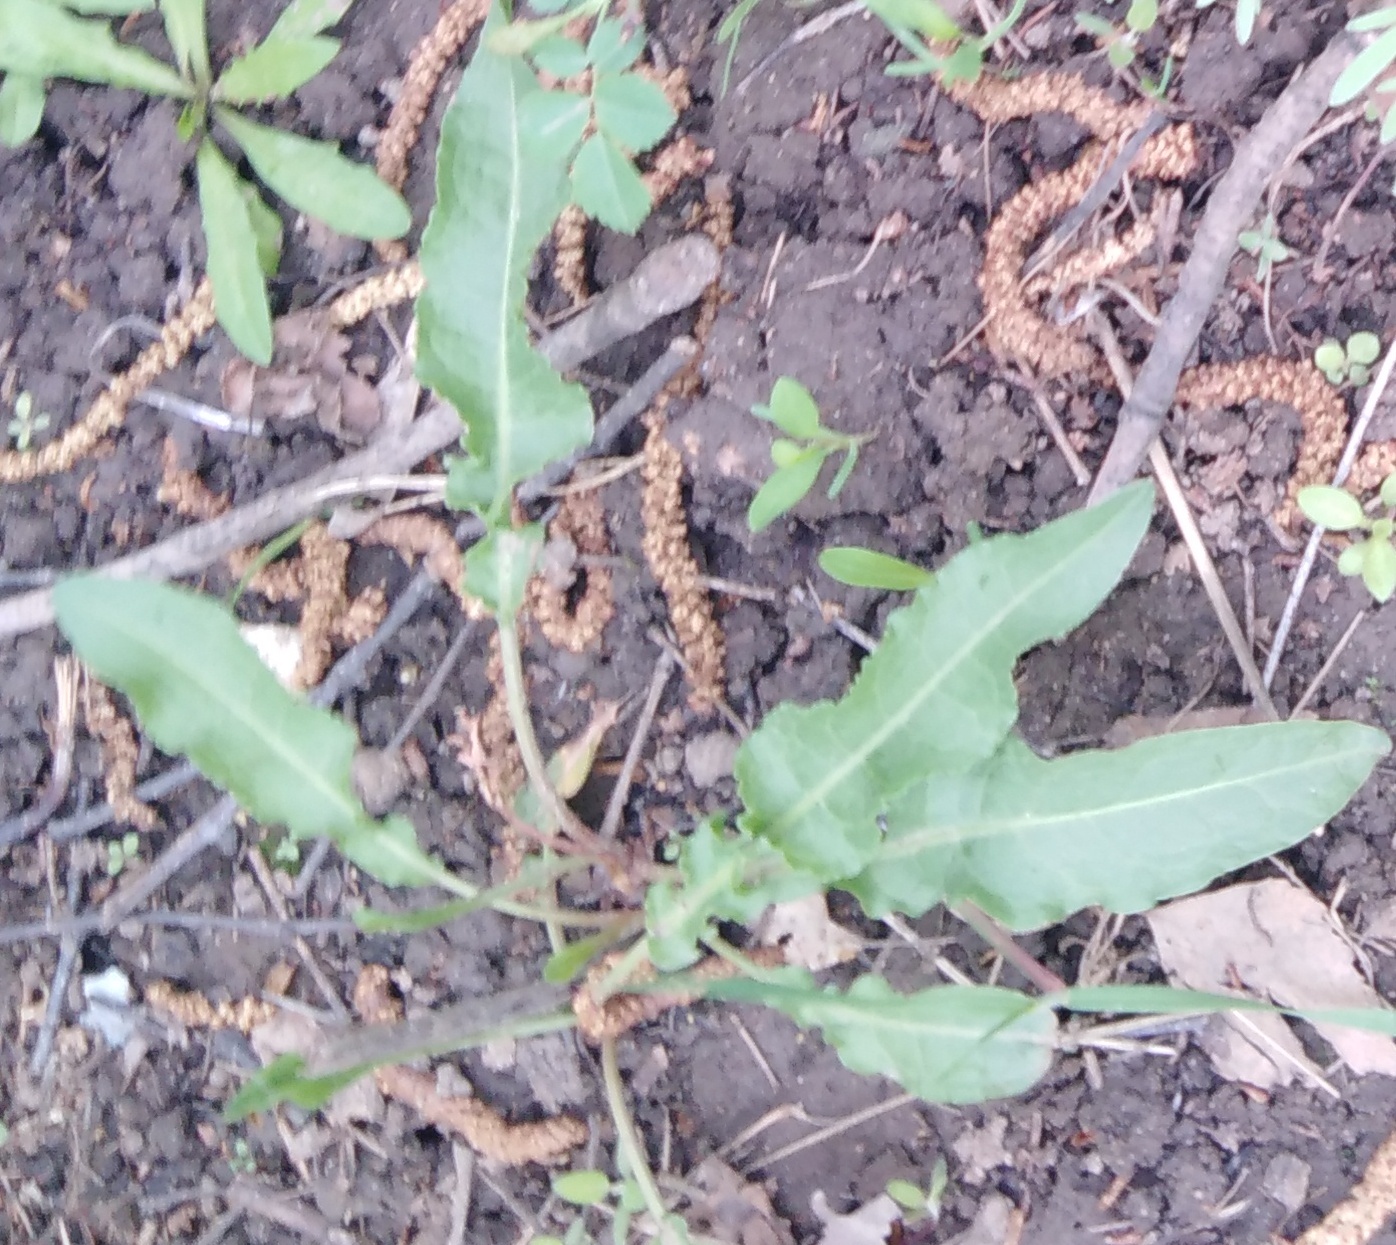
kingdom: Plantae
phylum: Tracheophyta
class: Magnoliopsida
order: Caryophyllales
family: Polygonaceae
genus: Rumex
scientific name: Rumex crispus
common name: Curled dock
